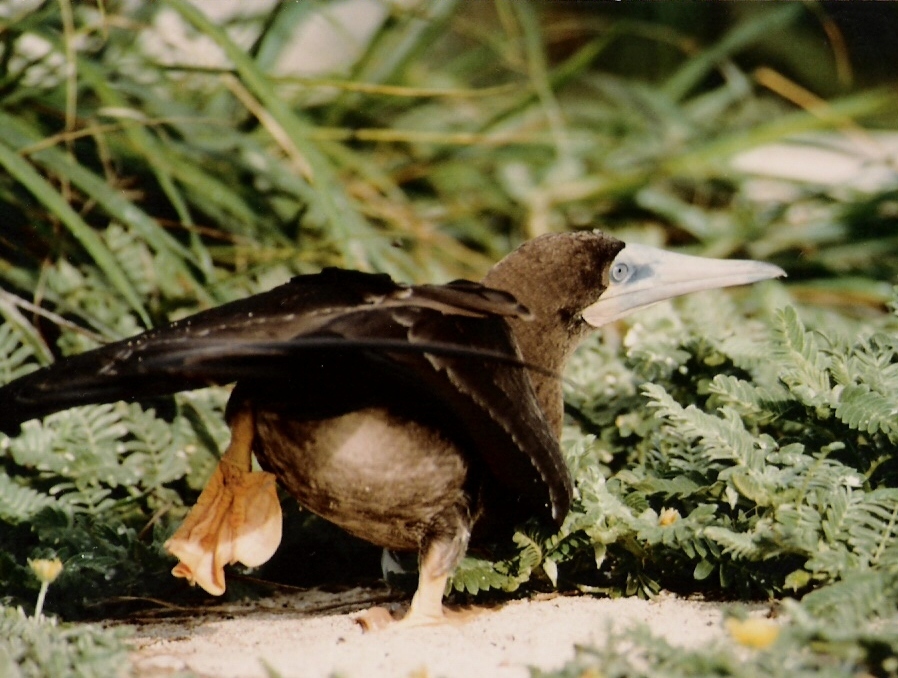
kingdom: Animalia
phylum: Chordata
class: Aves
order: Suliformes
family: Sulidae
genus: Sula
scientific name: Sula leucogaster
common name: Brown booby
